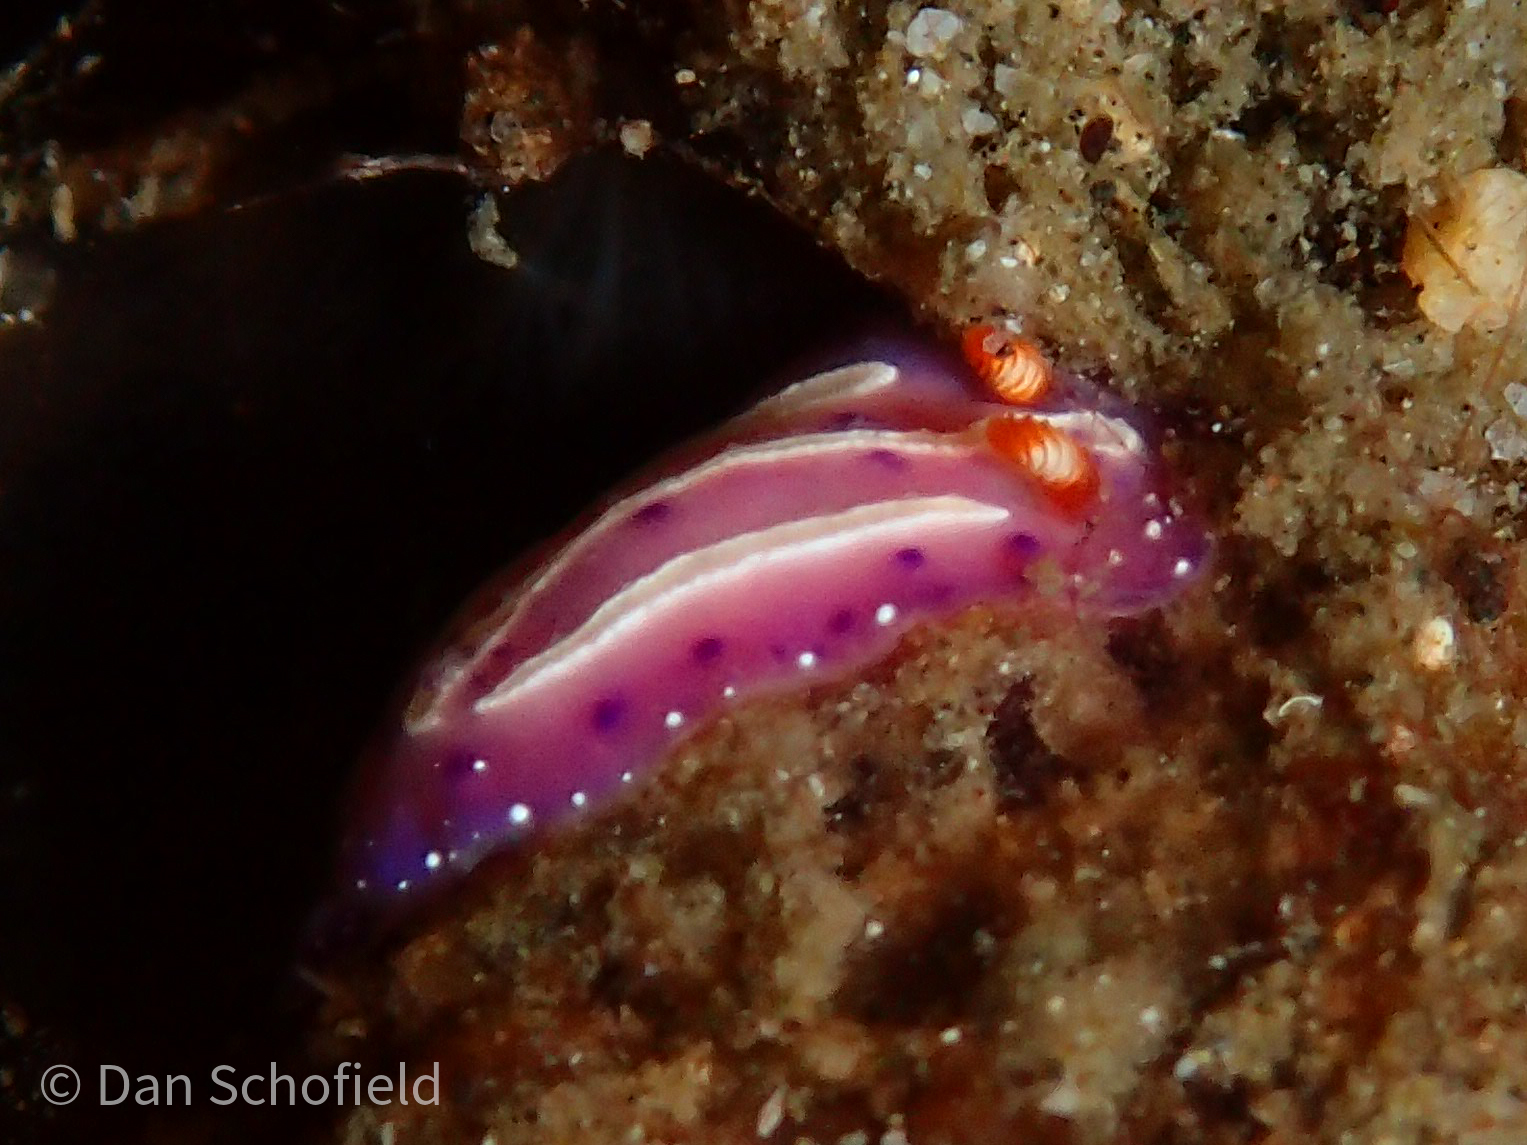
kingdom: Animalia
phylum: Mollusca
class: Gastropoda
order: Nudibranchia
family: Chromodorididae
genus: Mexichromis
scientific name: Mexichromis aurora
